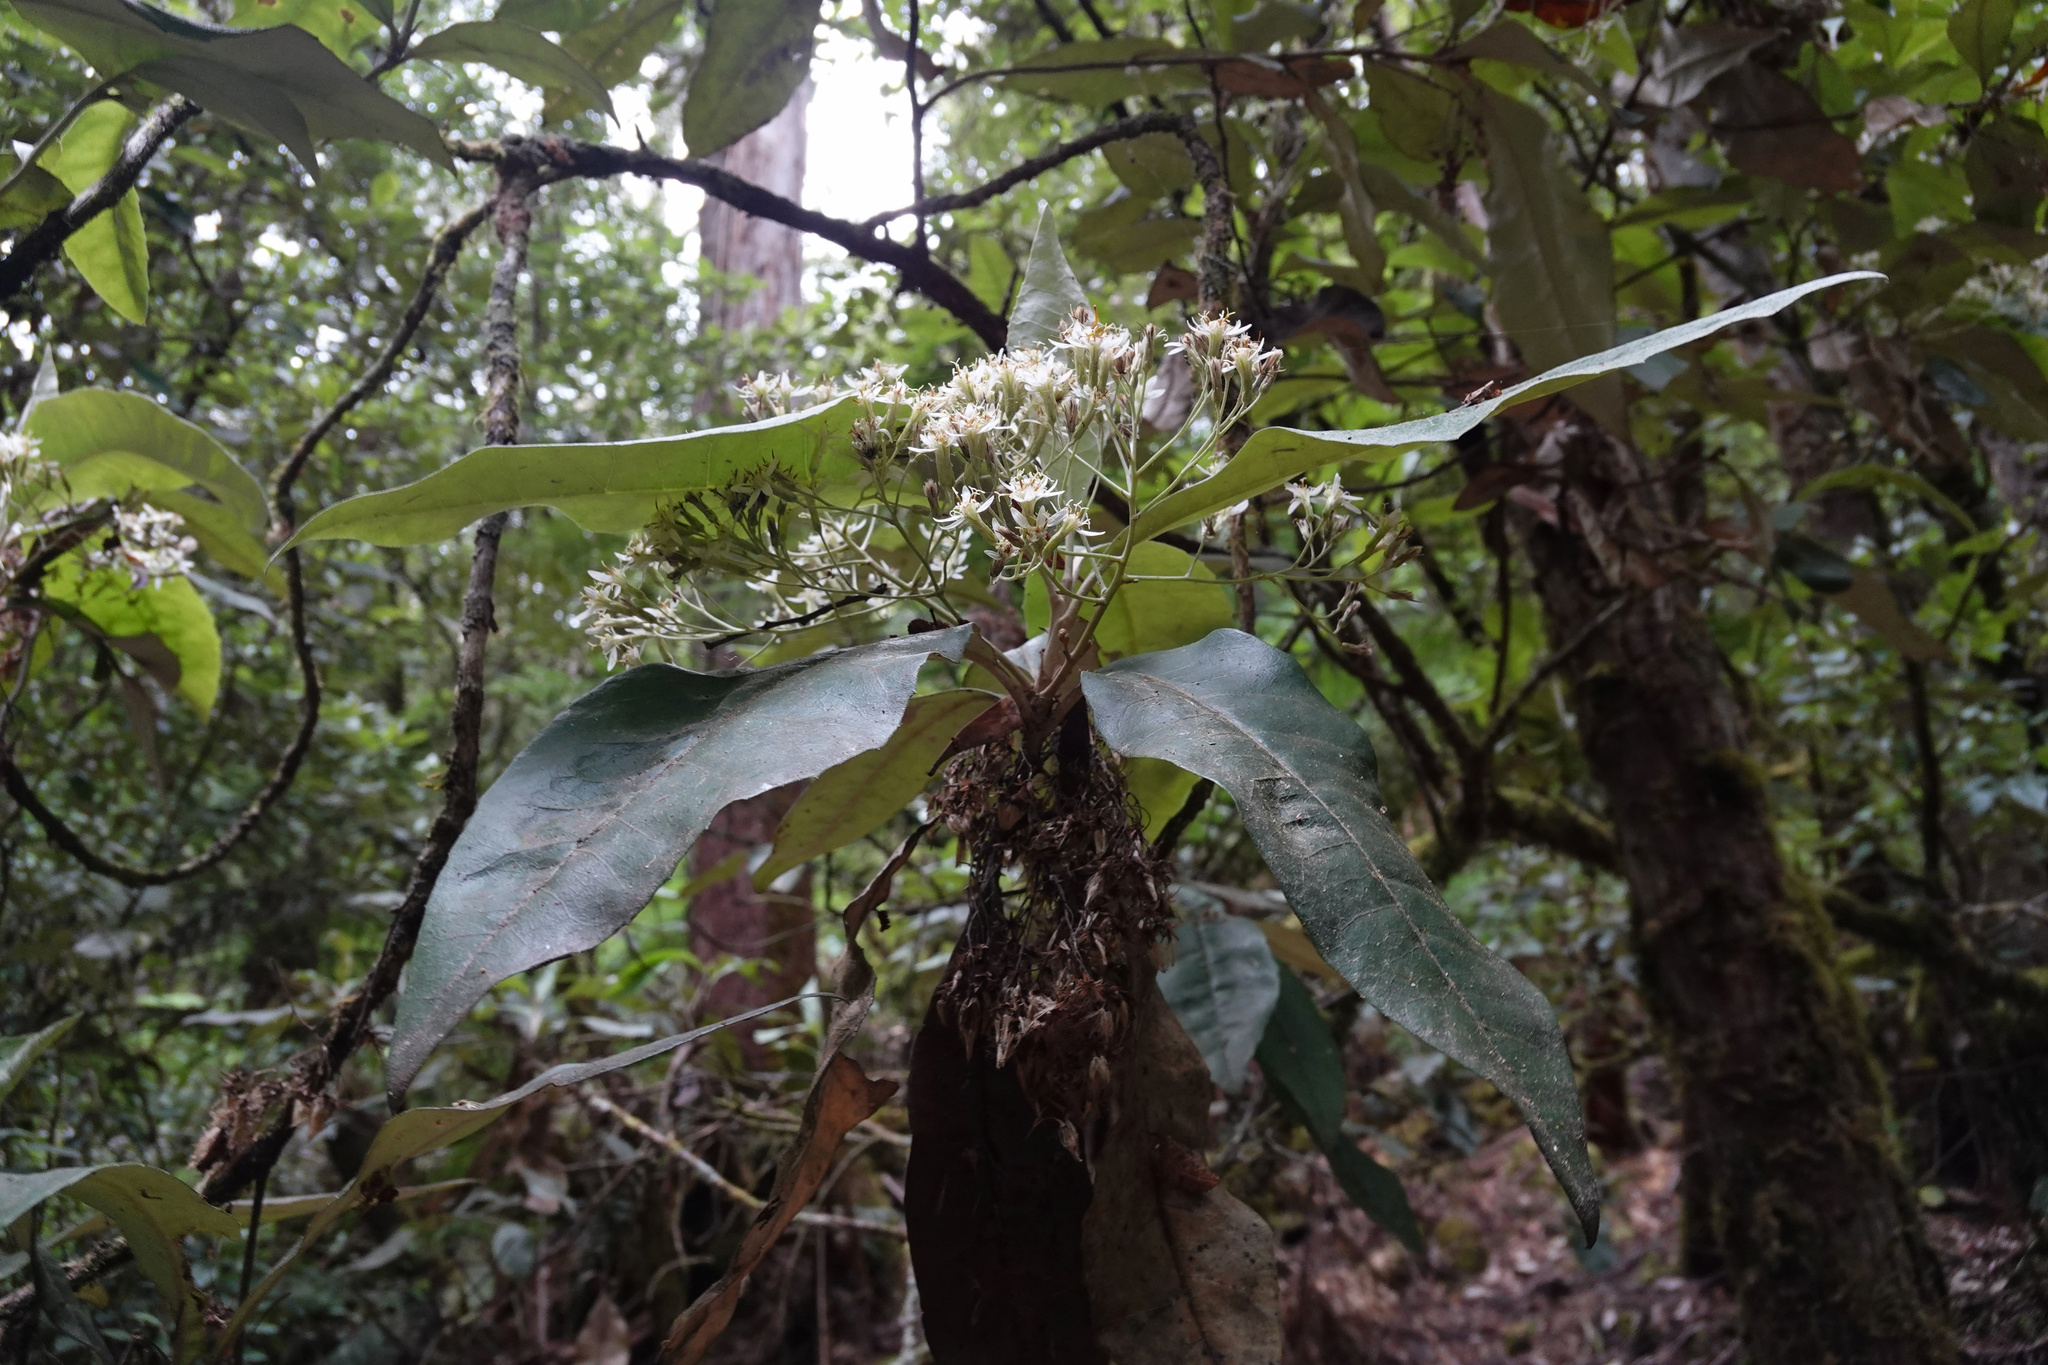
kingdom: Plantae
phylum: Tracheophyta
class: Magnoliopsida
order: Asterales
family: Asteraceae
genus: Olearia
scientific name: Olearia argophylla
